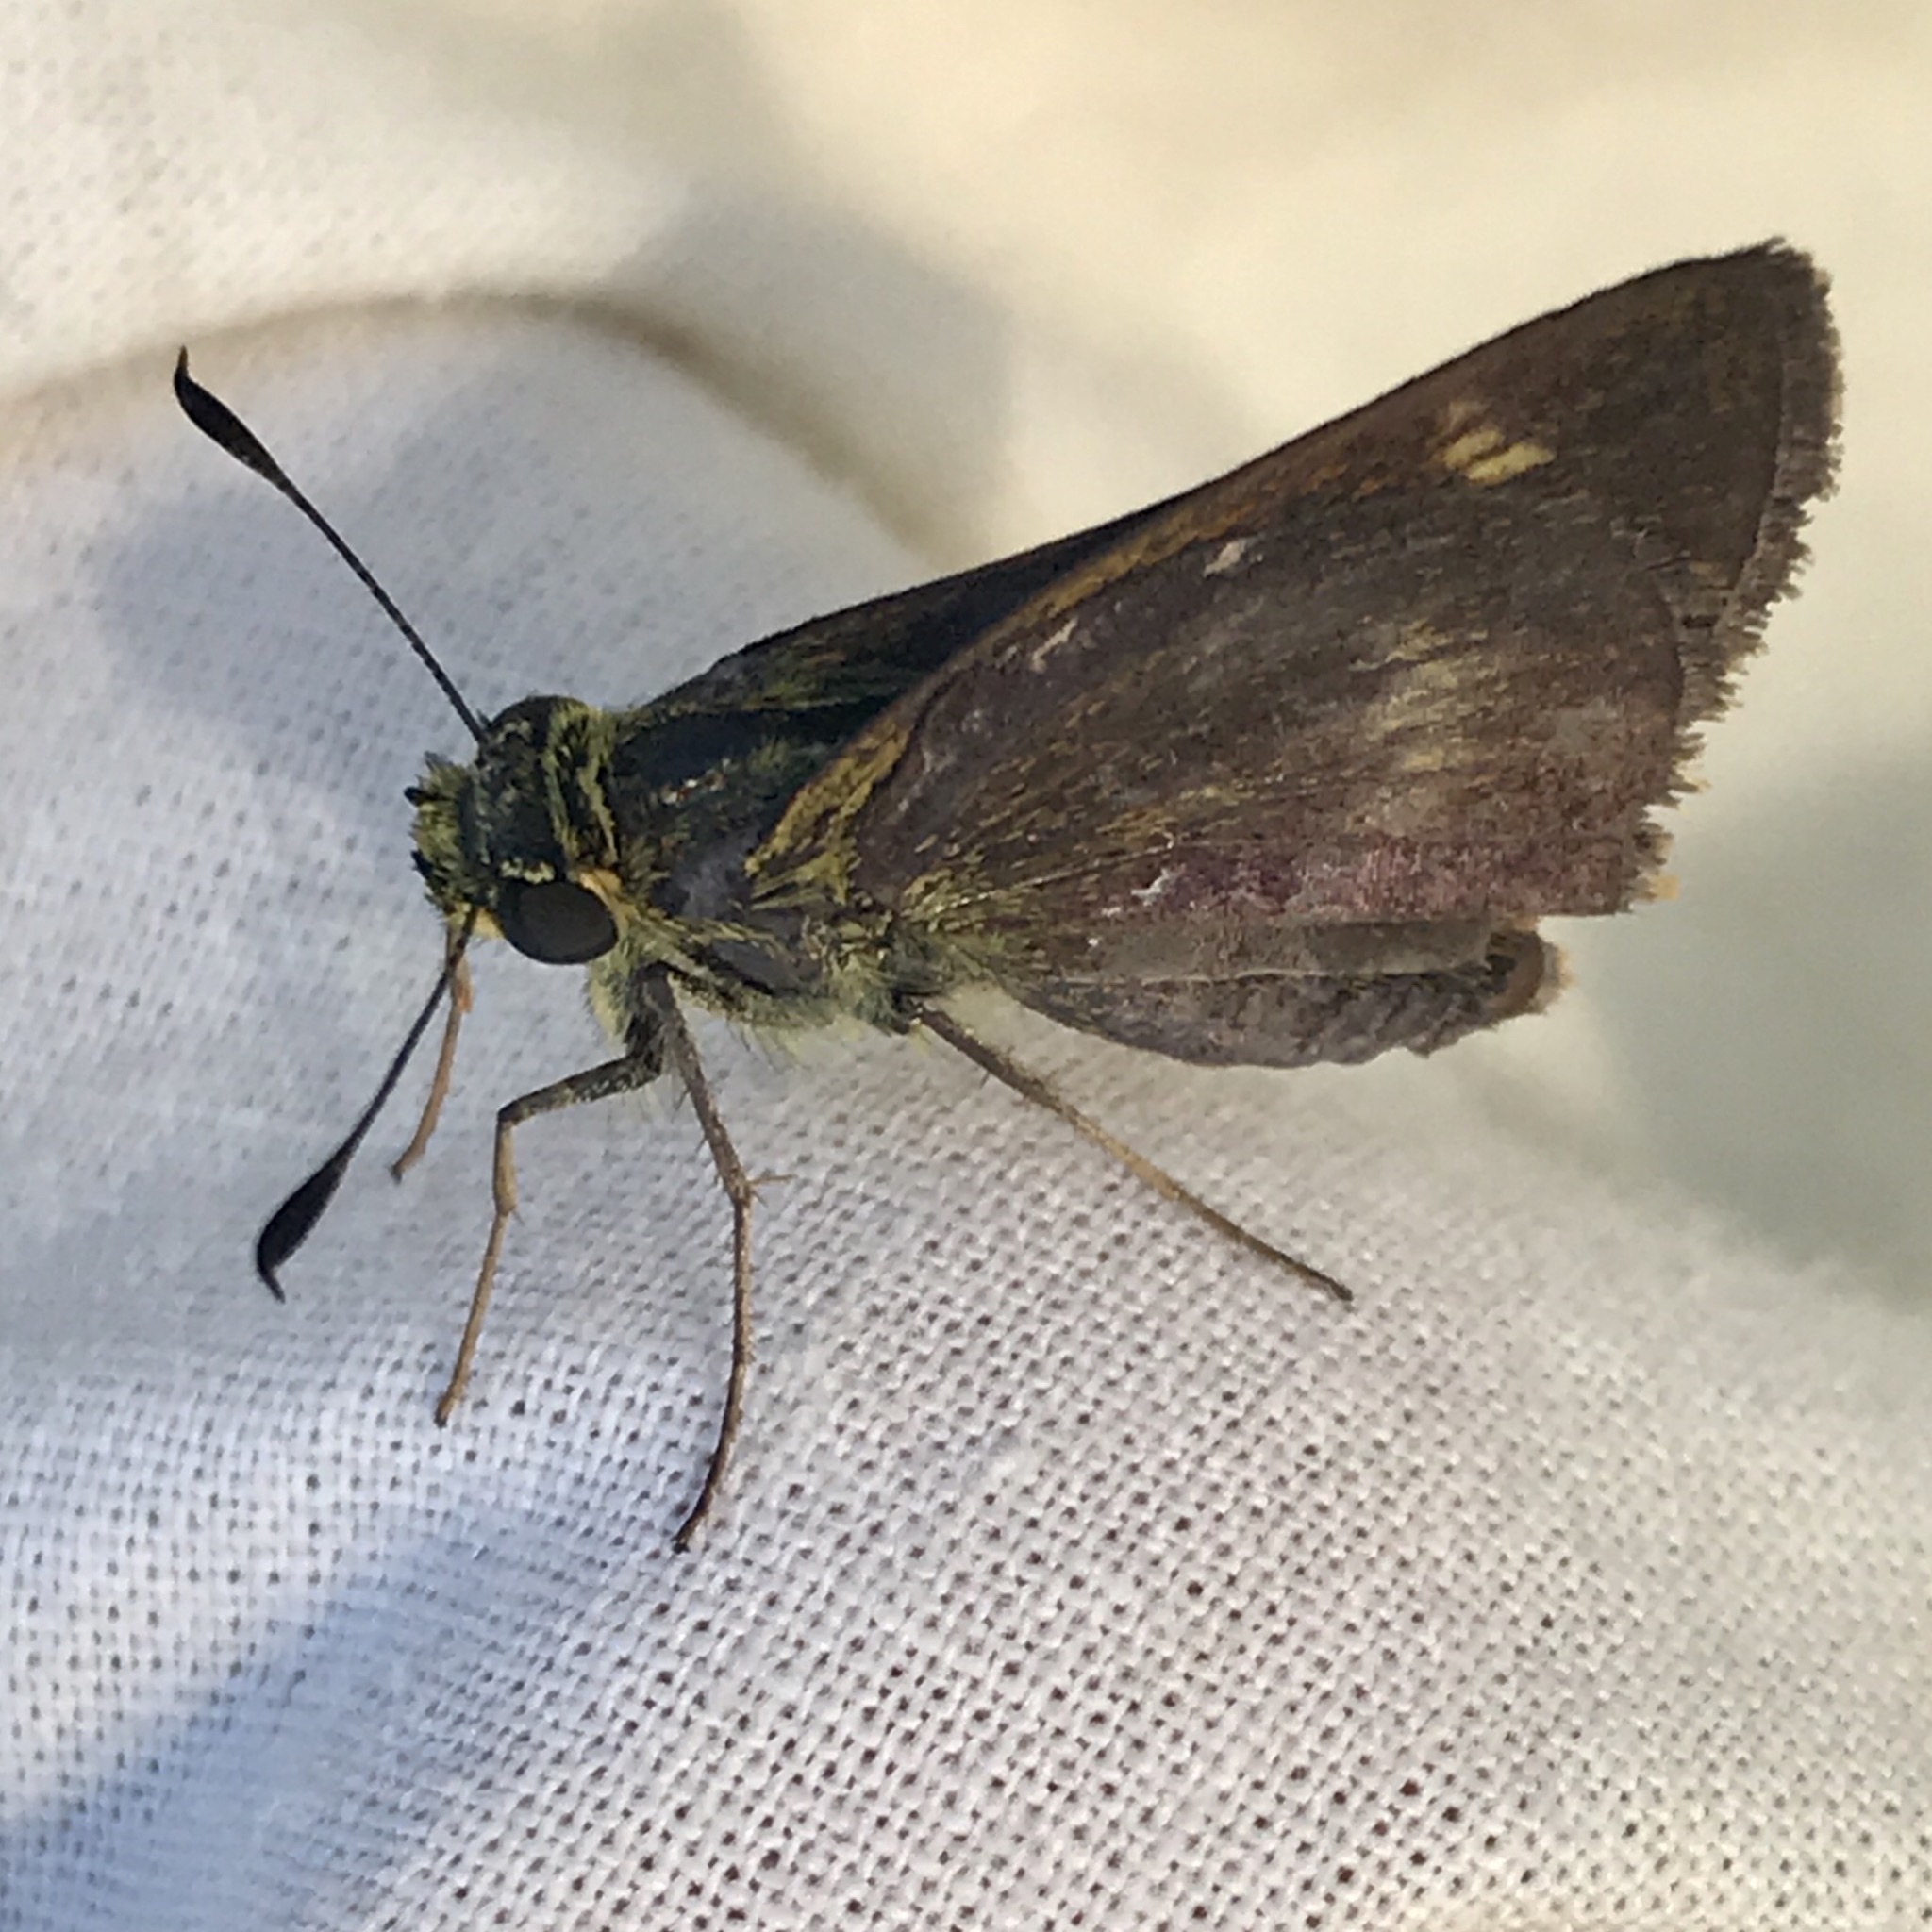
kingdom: Animalia
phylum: Arthropoda
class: Insecta
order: Lepidoptera
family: Hesperiidae
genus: Polites
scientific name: Polites egeremet
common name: Northern broken-dash
